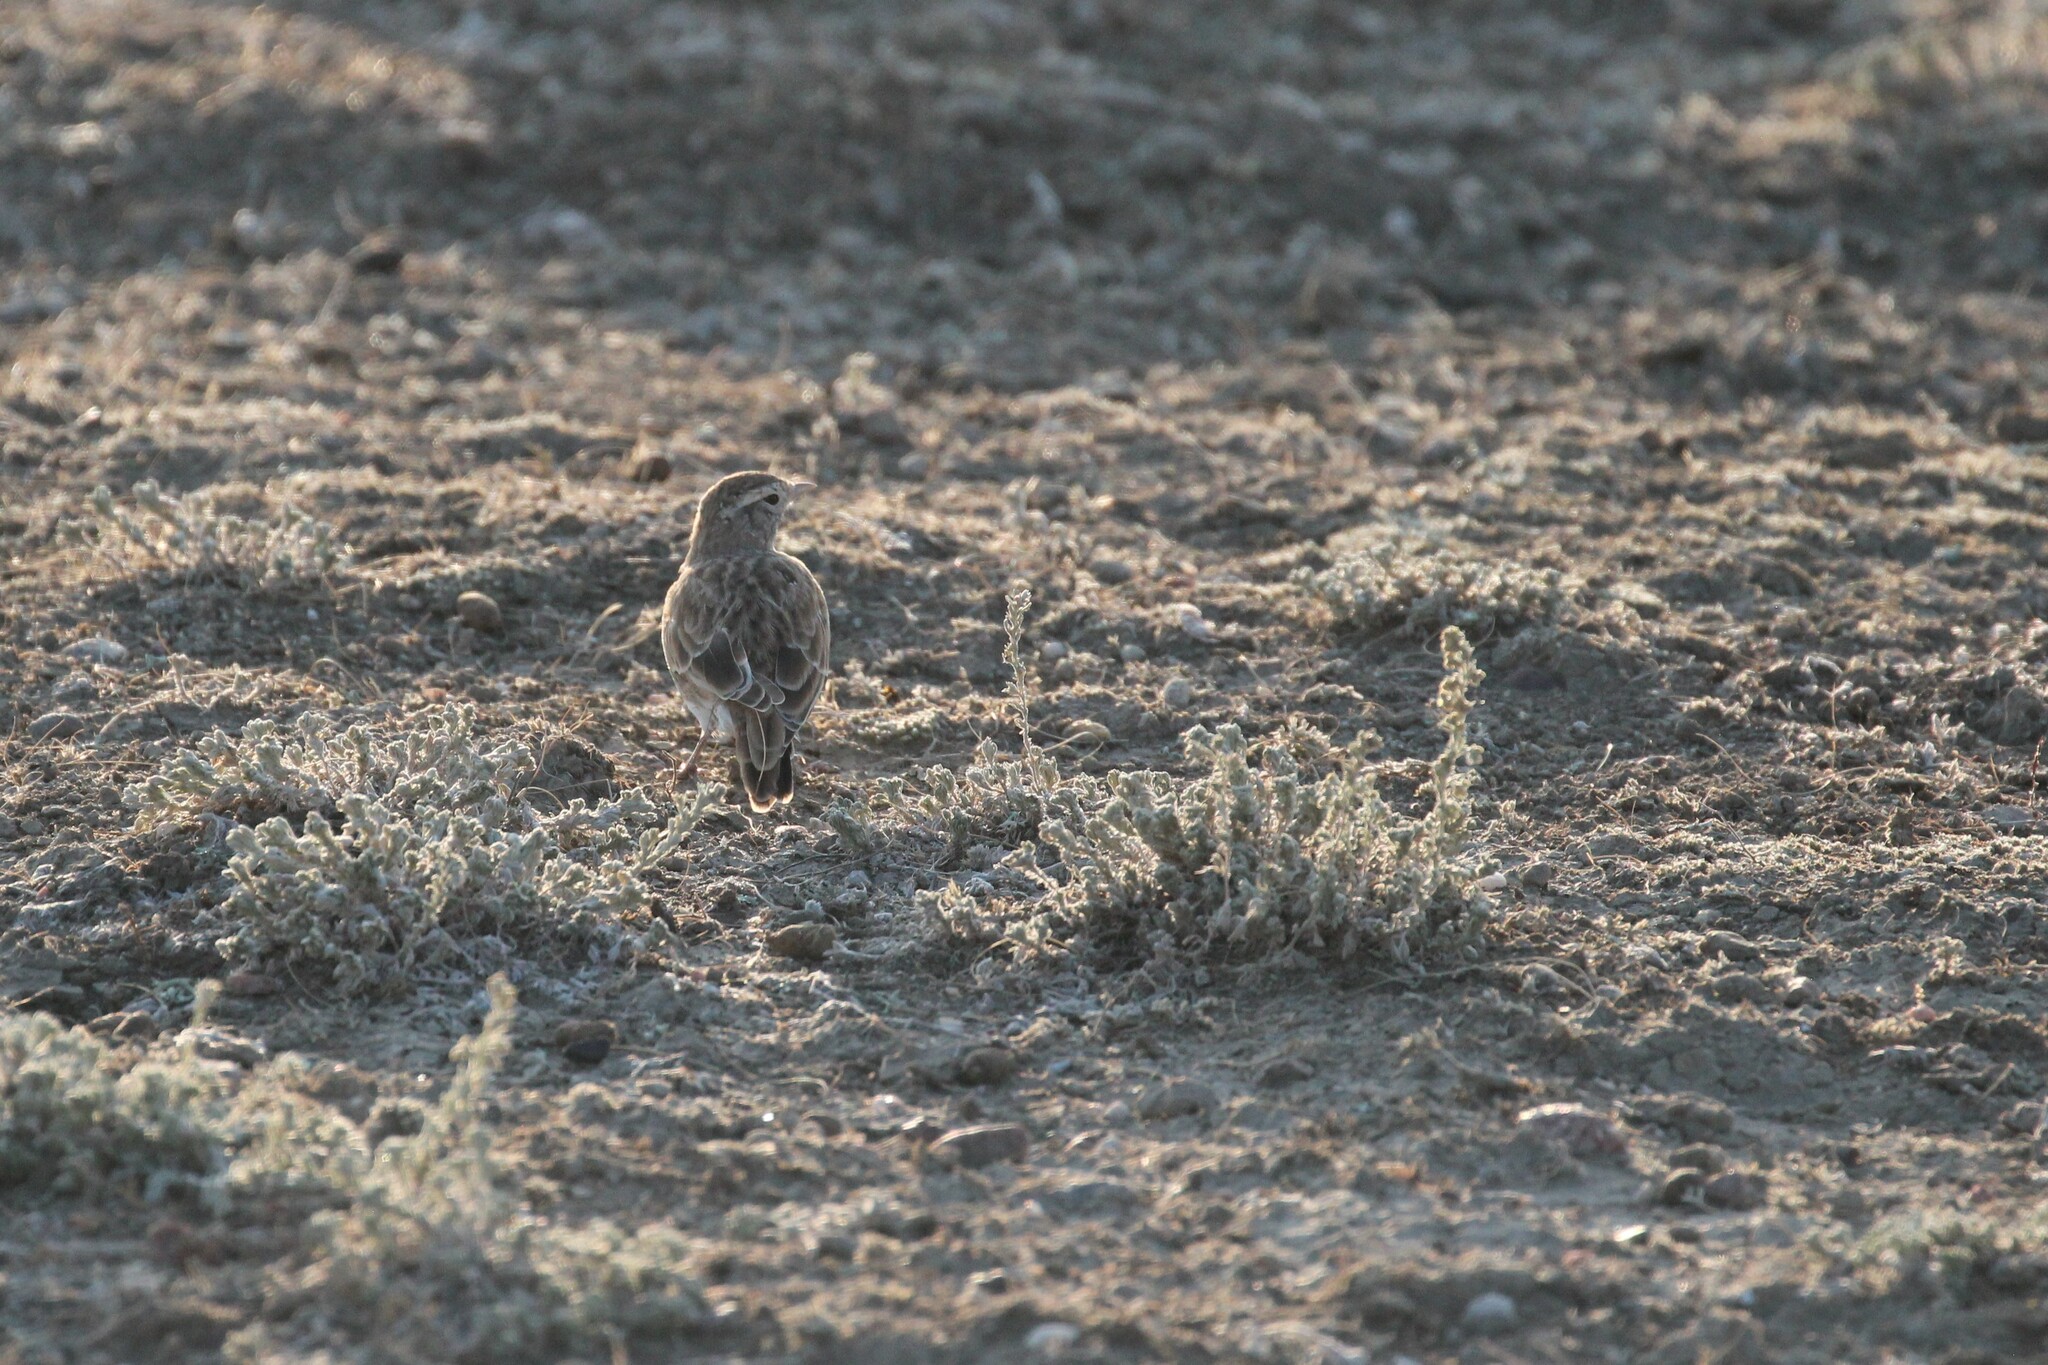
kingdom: Animalia
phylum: Chordata
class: Aves
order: Passeriformes
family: Alaudidae
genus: Eremophila
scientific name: Eremophila alpestris
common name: Horned lark
